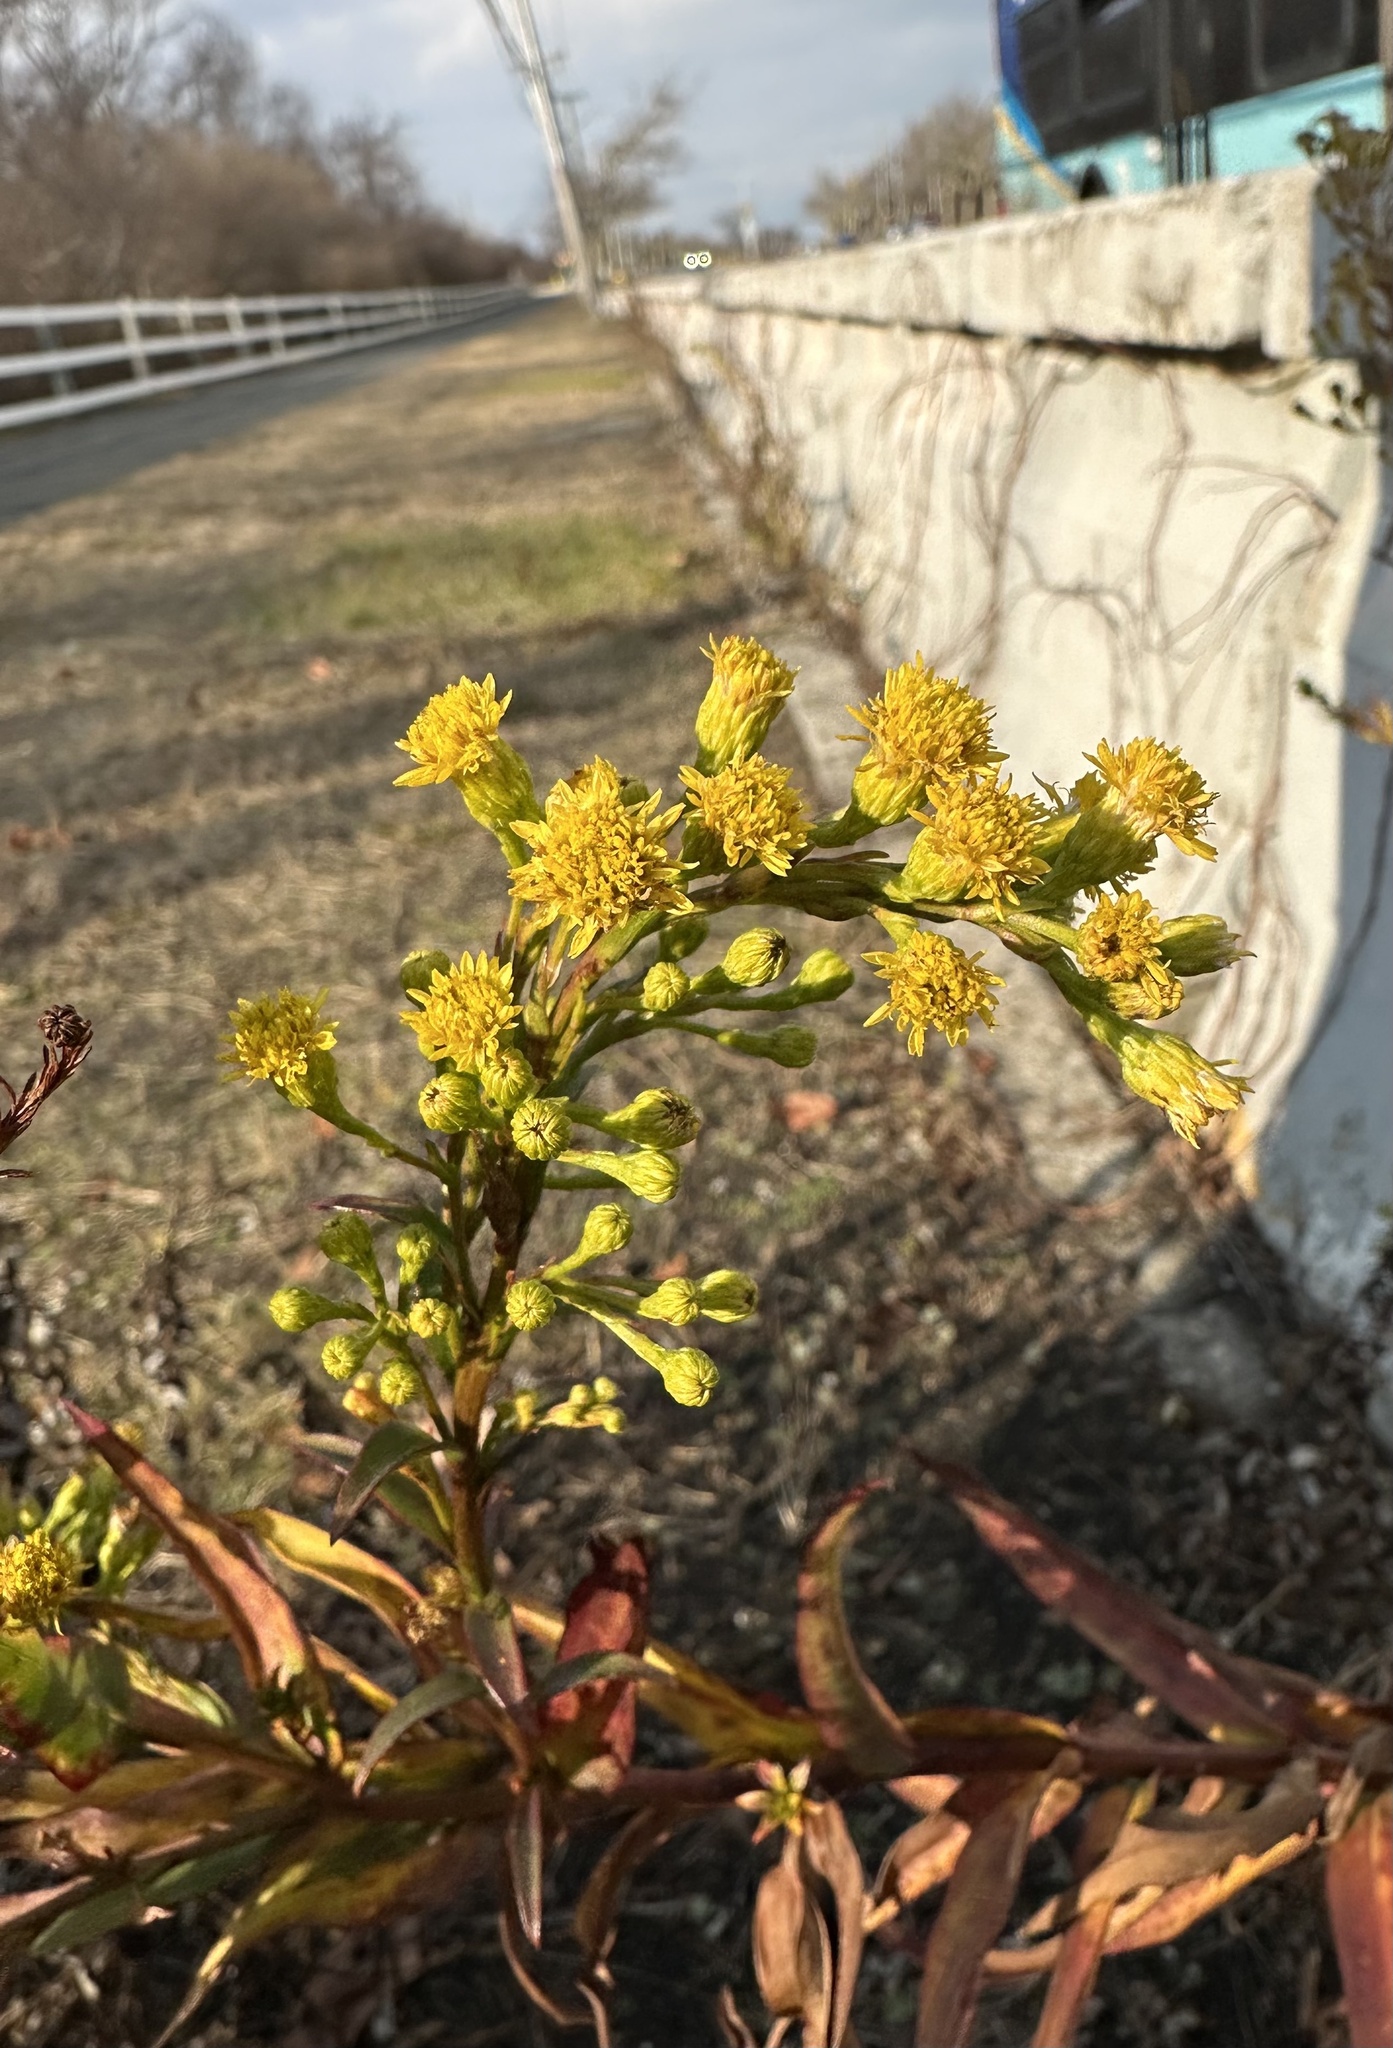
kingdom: Plantae
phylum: Tracheophyta
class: Magnoliopsida
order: Asterales
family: Asteraceae
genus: Solidago
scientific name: Solidago sempervirens
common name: Salt-marsh goldenrod
